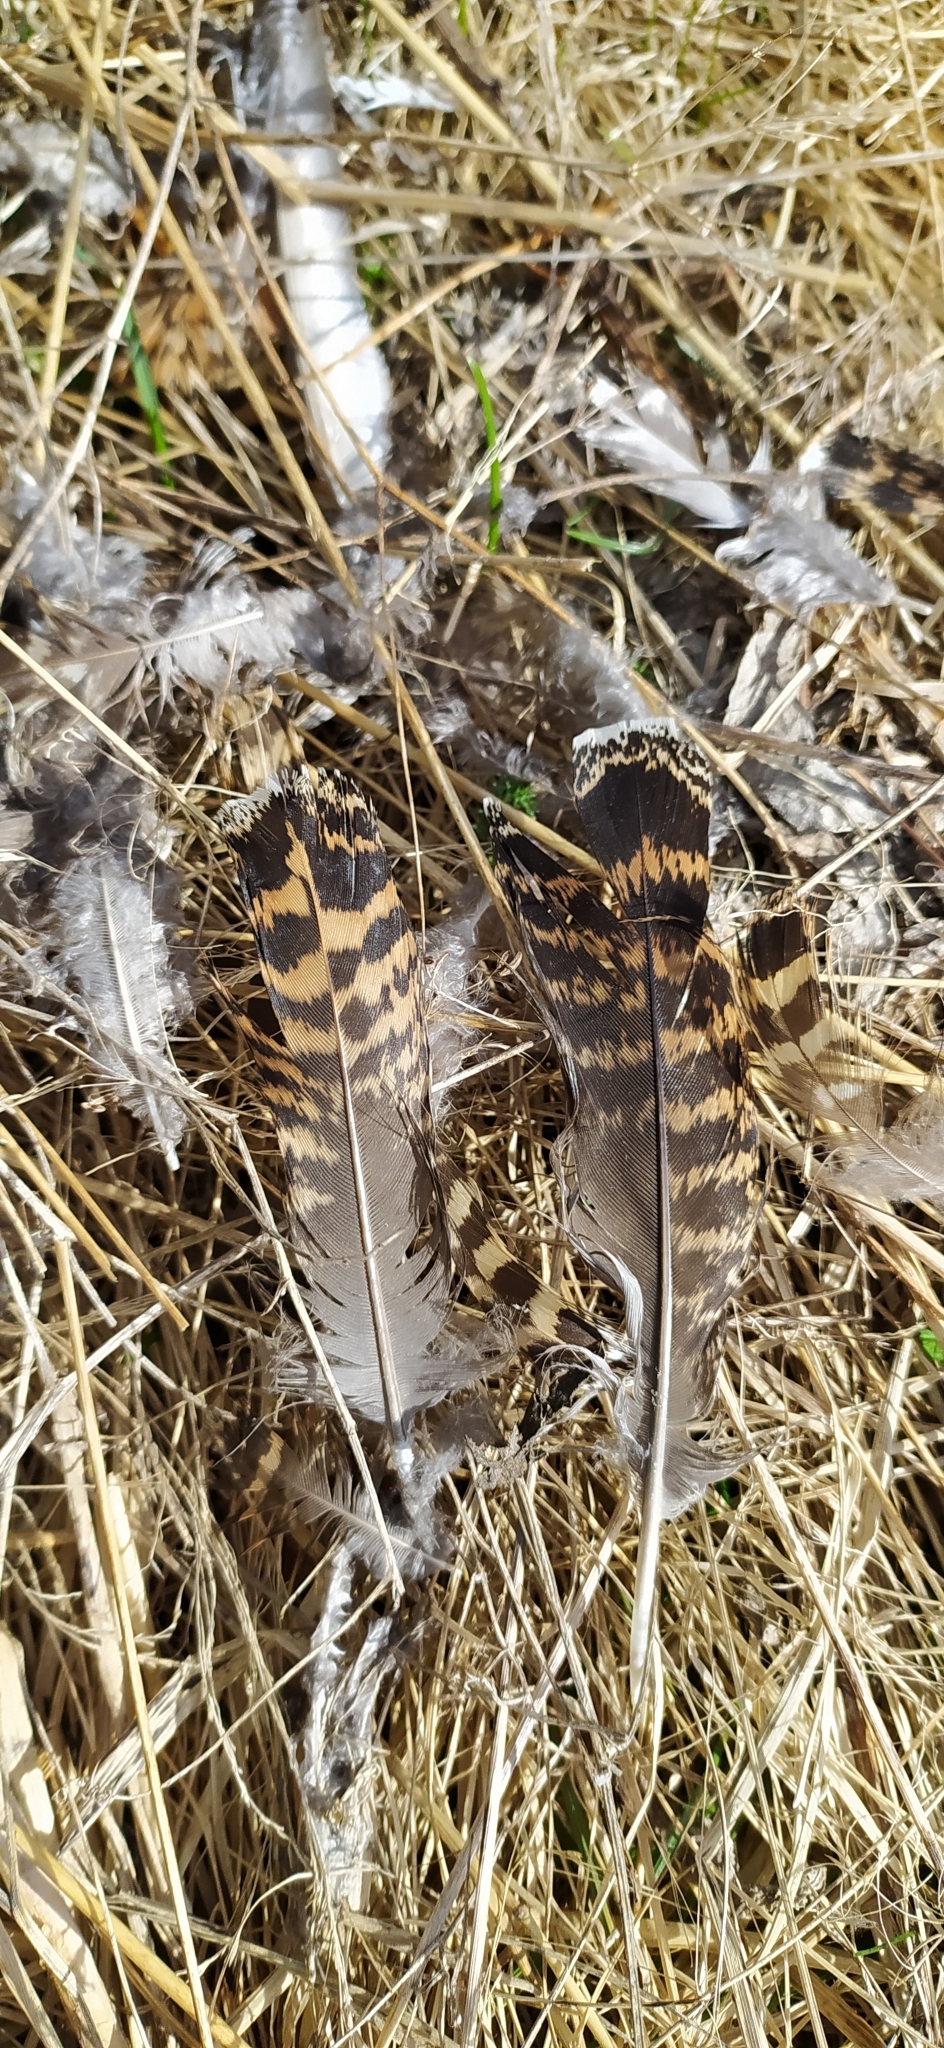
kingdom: Animalia
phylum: Chordata
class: Aves
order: Galliformes
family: Phasianidae
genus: Lyrurus
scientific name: Lyrurus tetrix
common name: Black grouse
